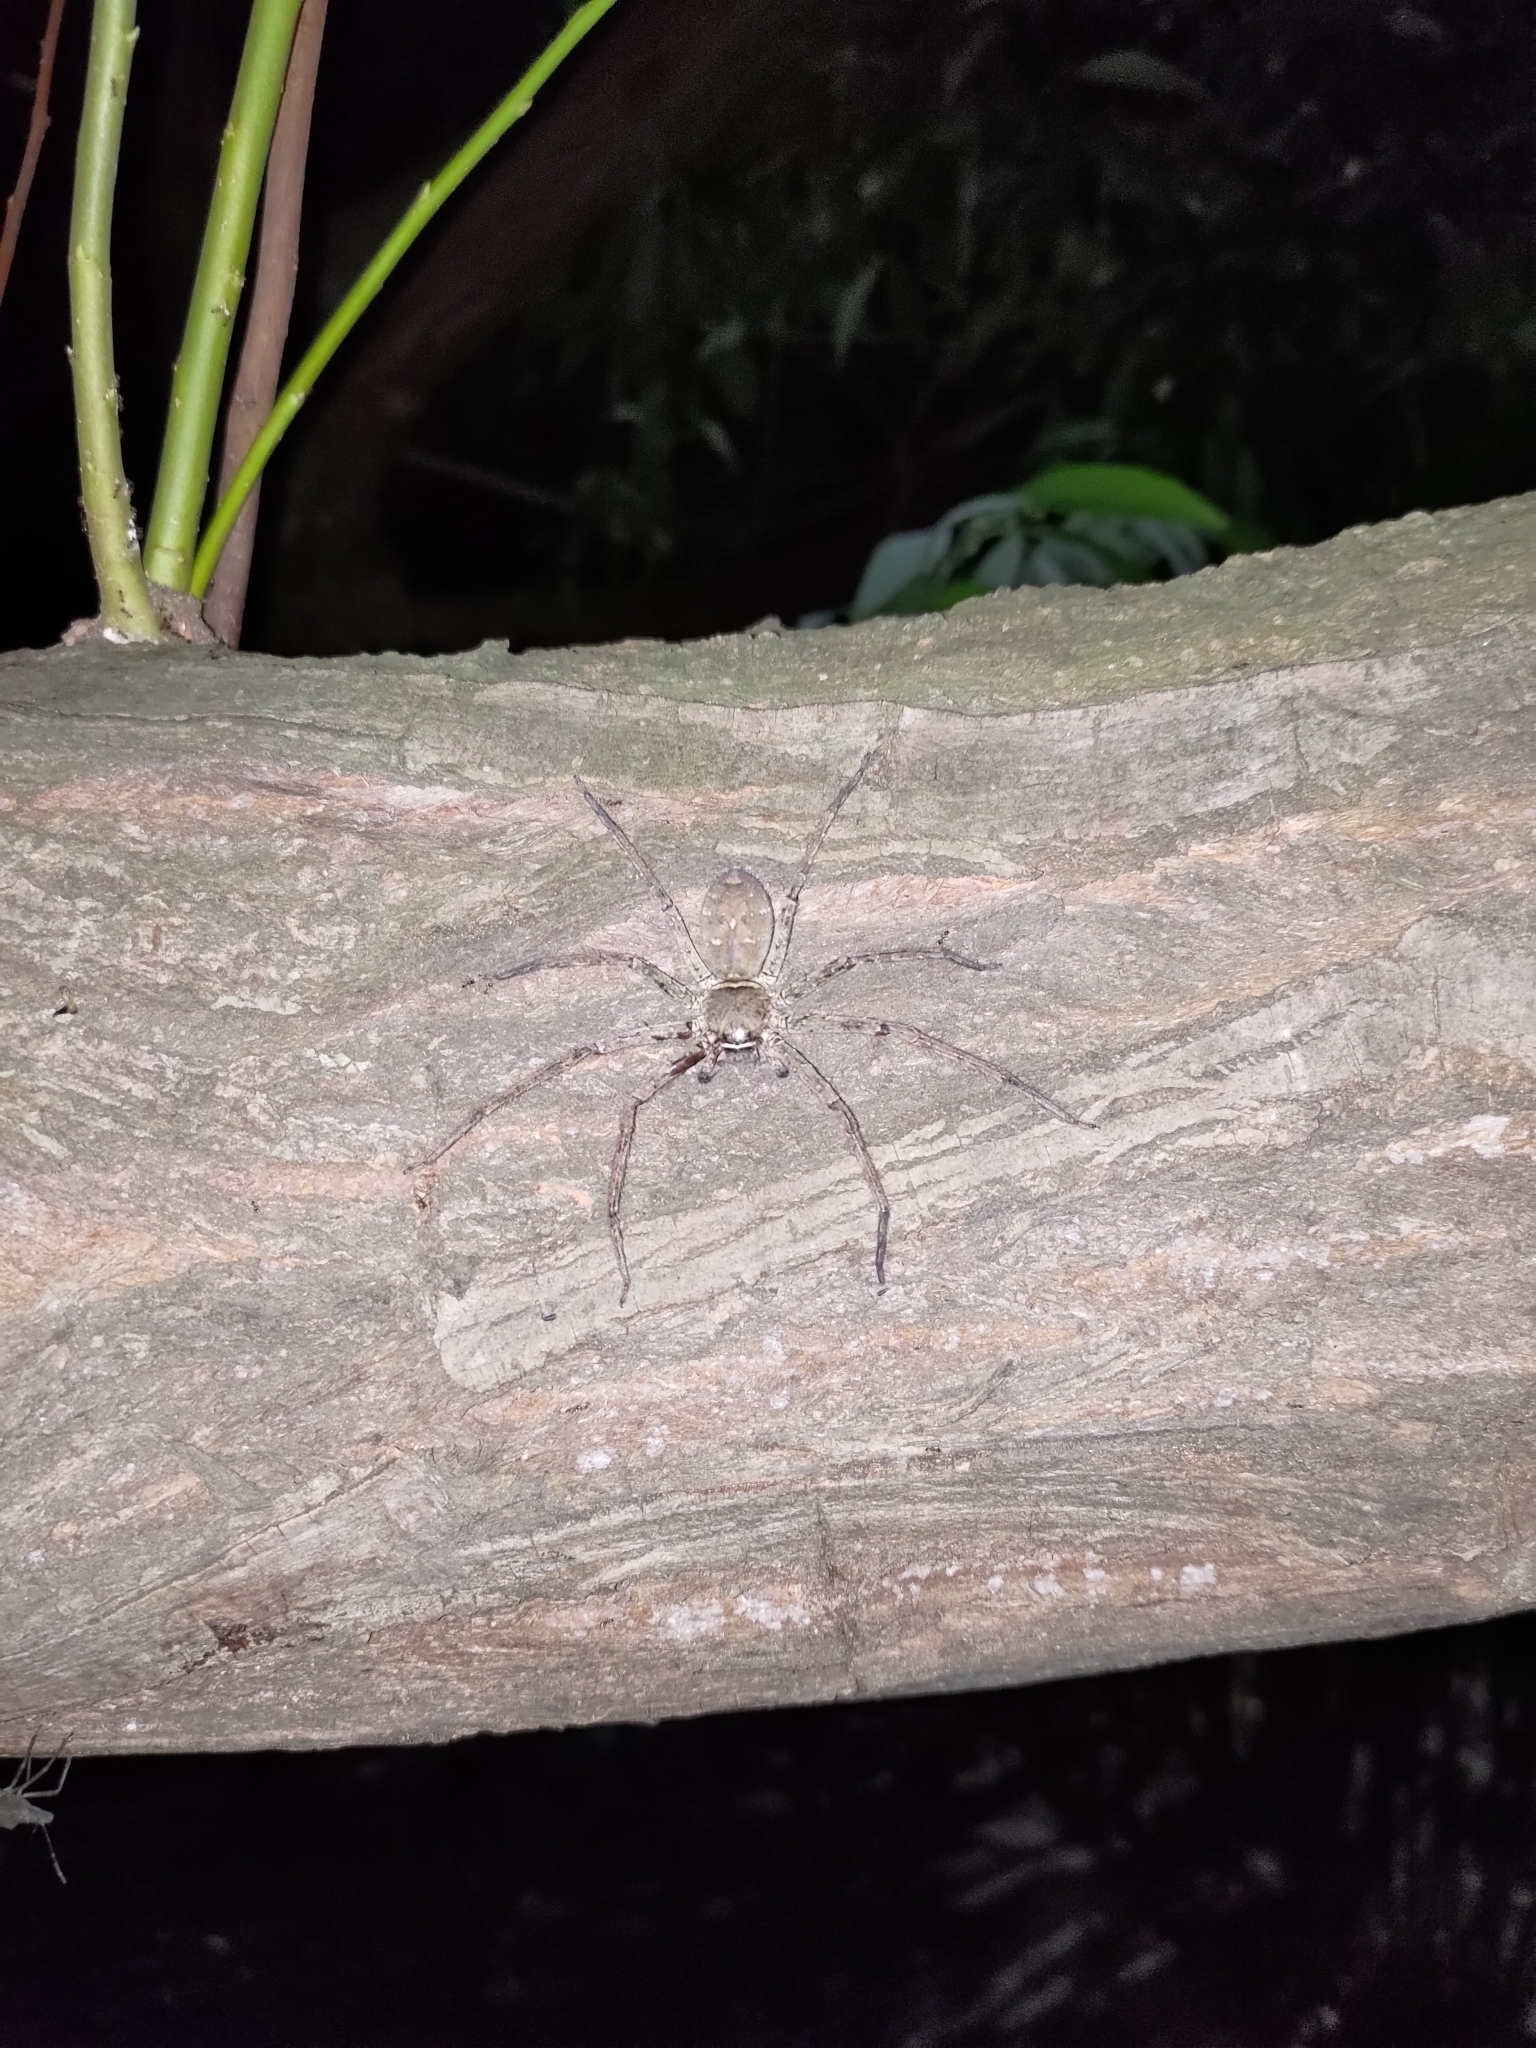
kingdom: Animalia
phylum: Arthropoda
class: Arachnida
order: Araneae
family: Sparassidae
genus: Heteropoda
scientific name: Heteropoda venatoria
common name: Huntsman spider
